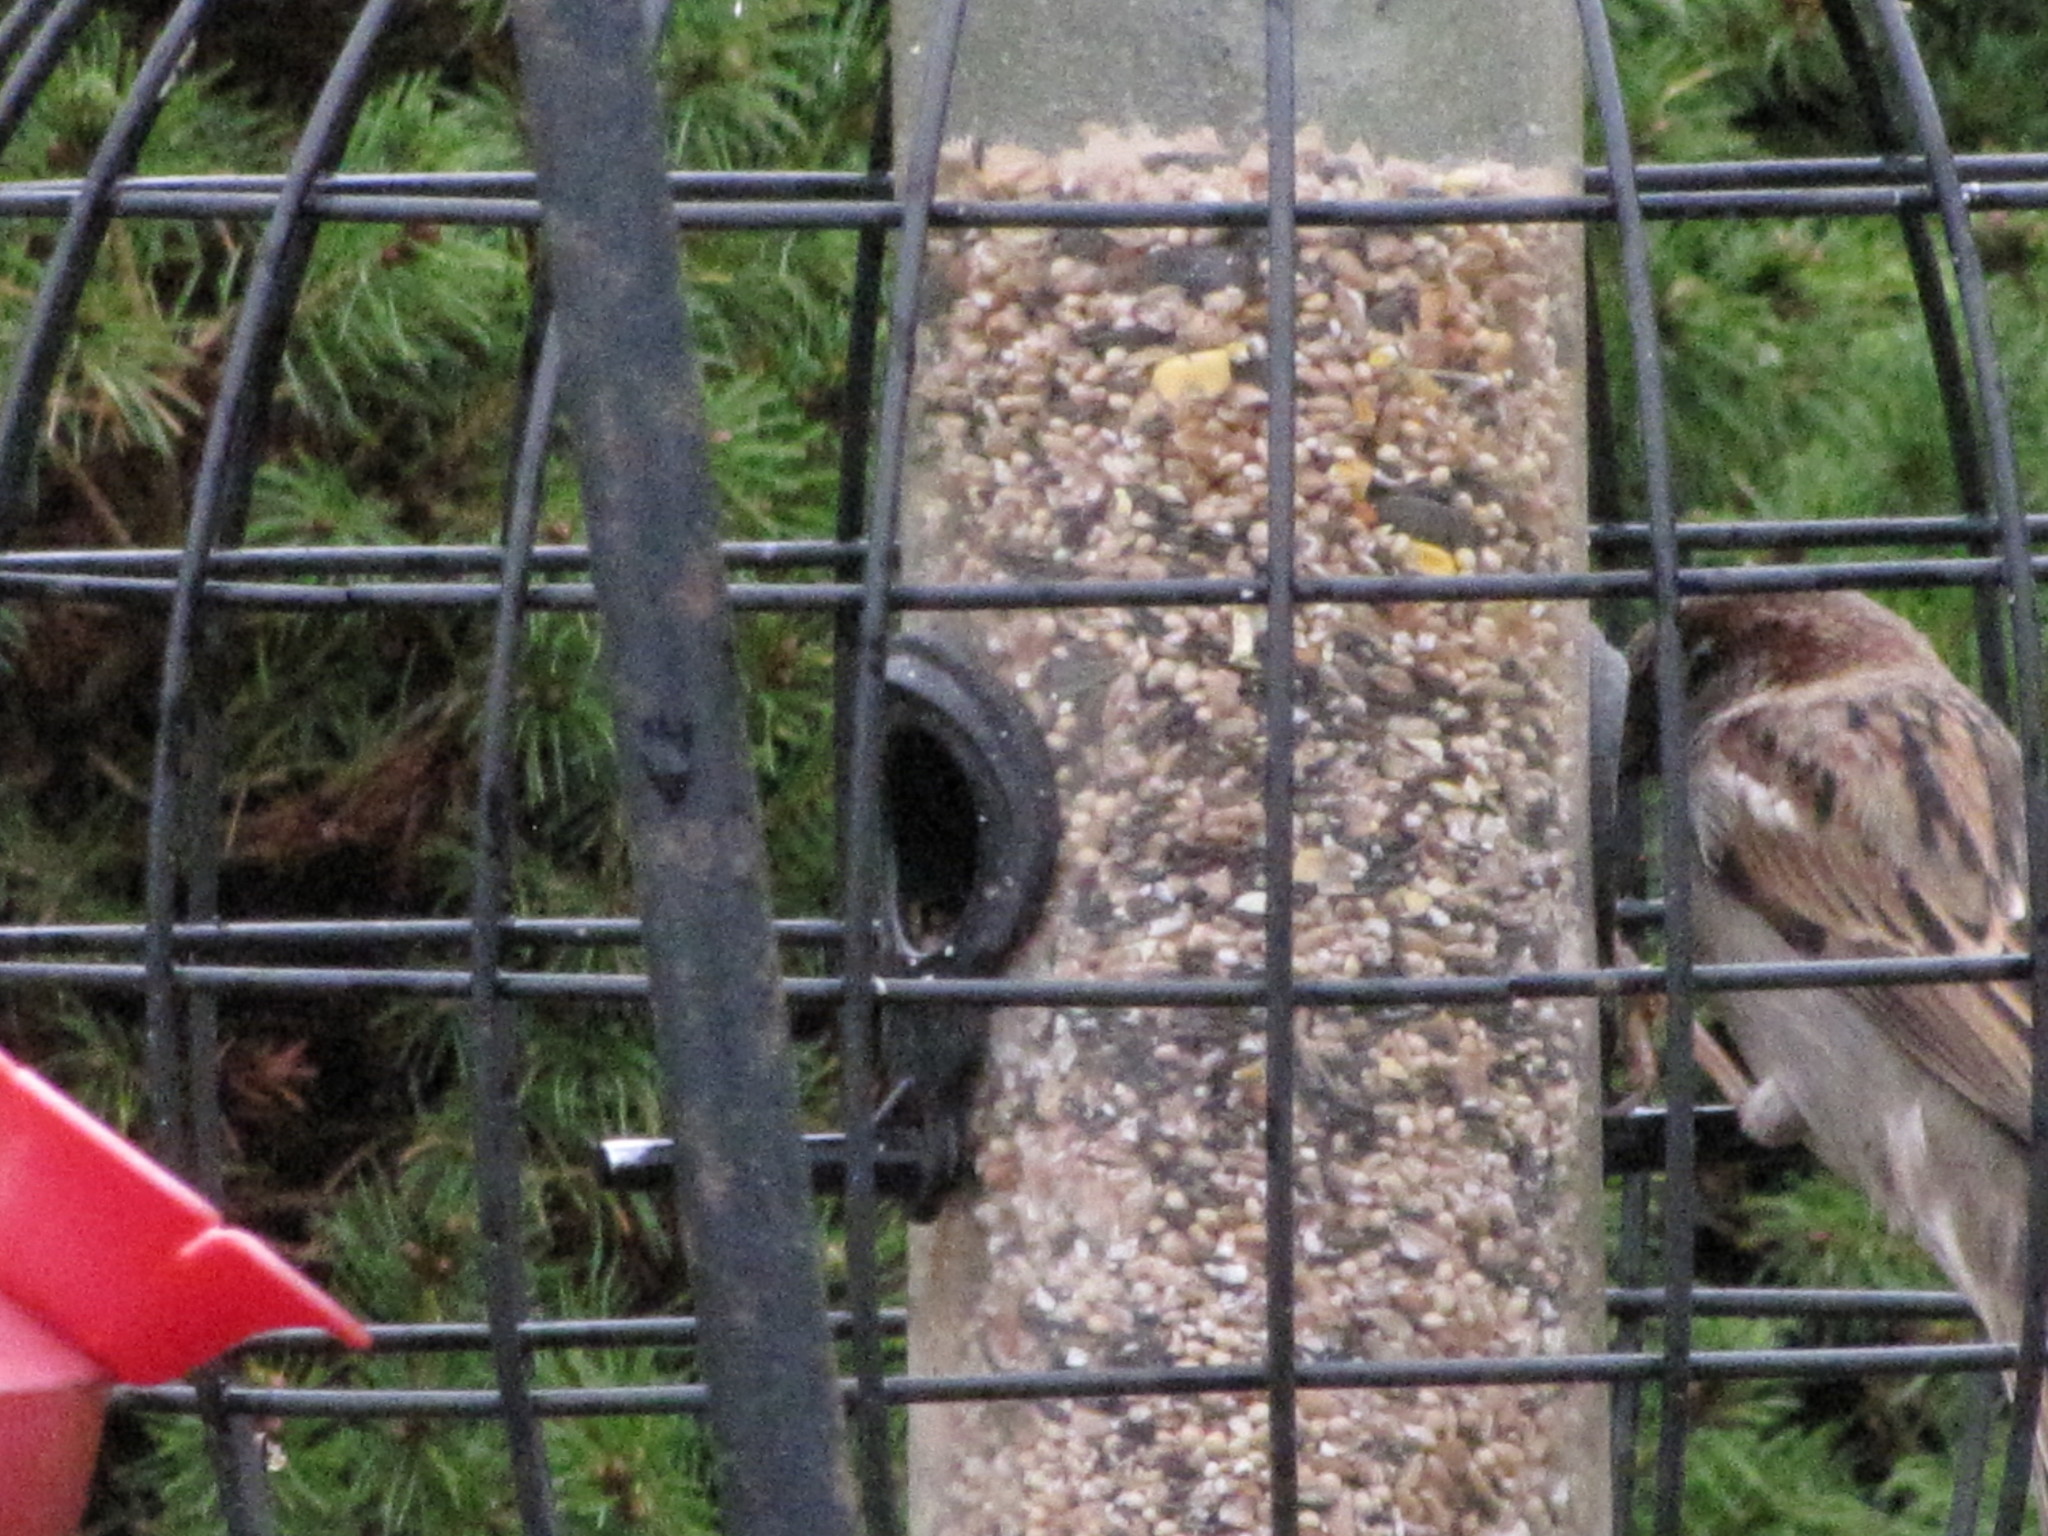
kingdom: Animalia
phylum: Chordata
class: Aves
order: Passeriformes
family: Passeridae
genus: Passer
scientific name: Passer domesticus
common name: House sparrow
